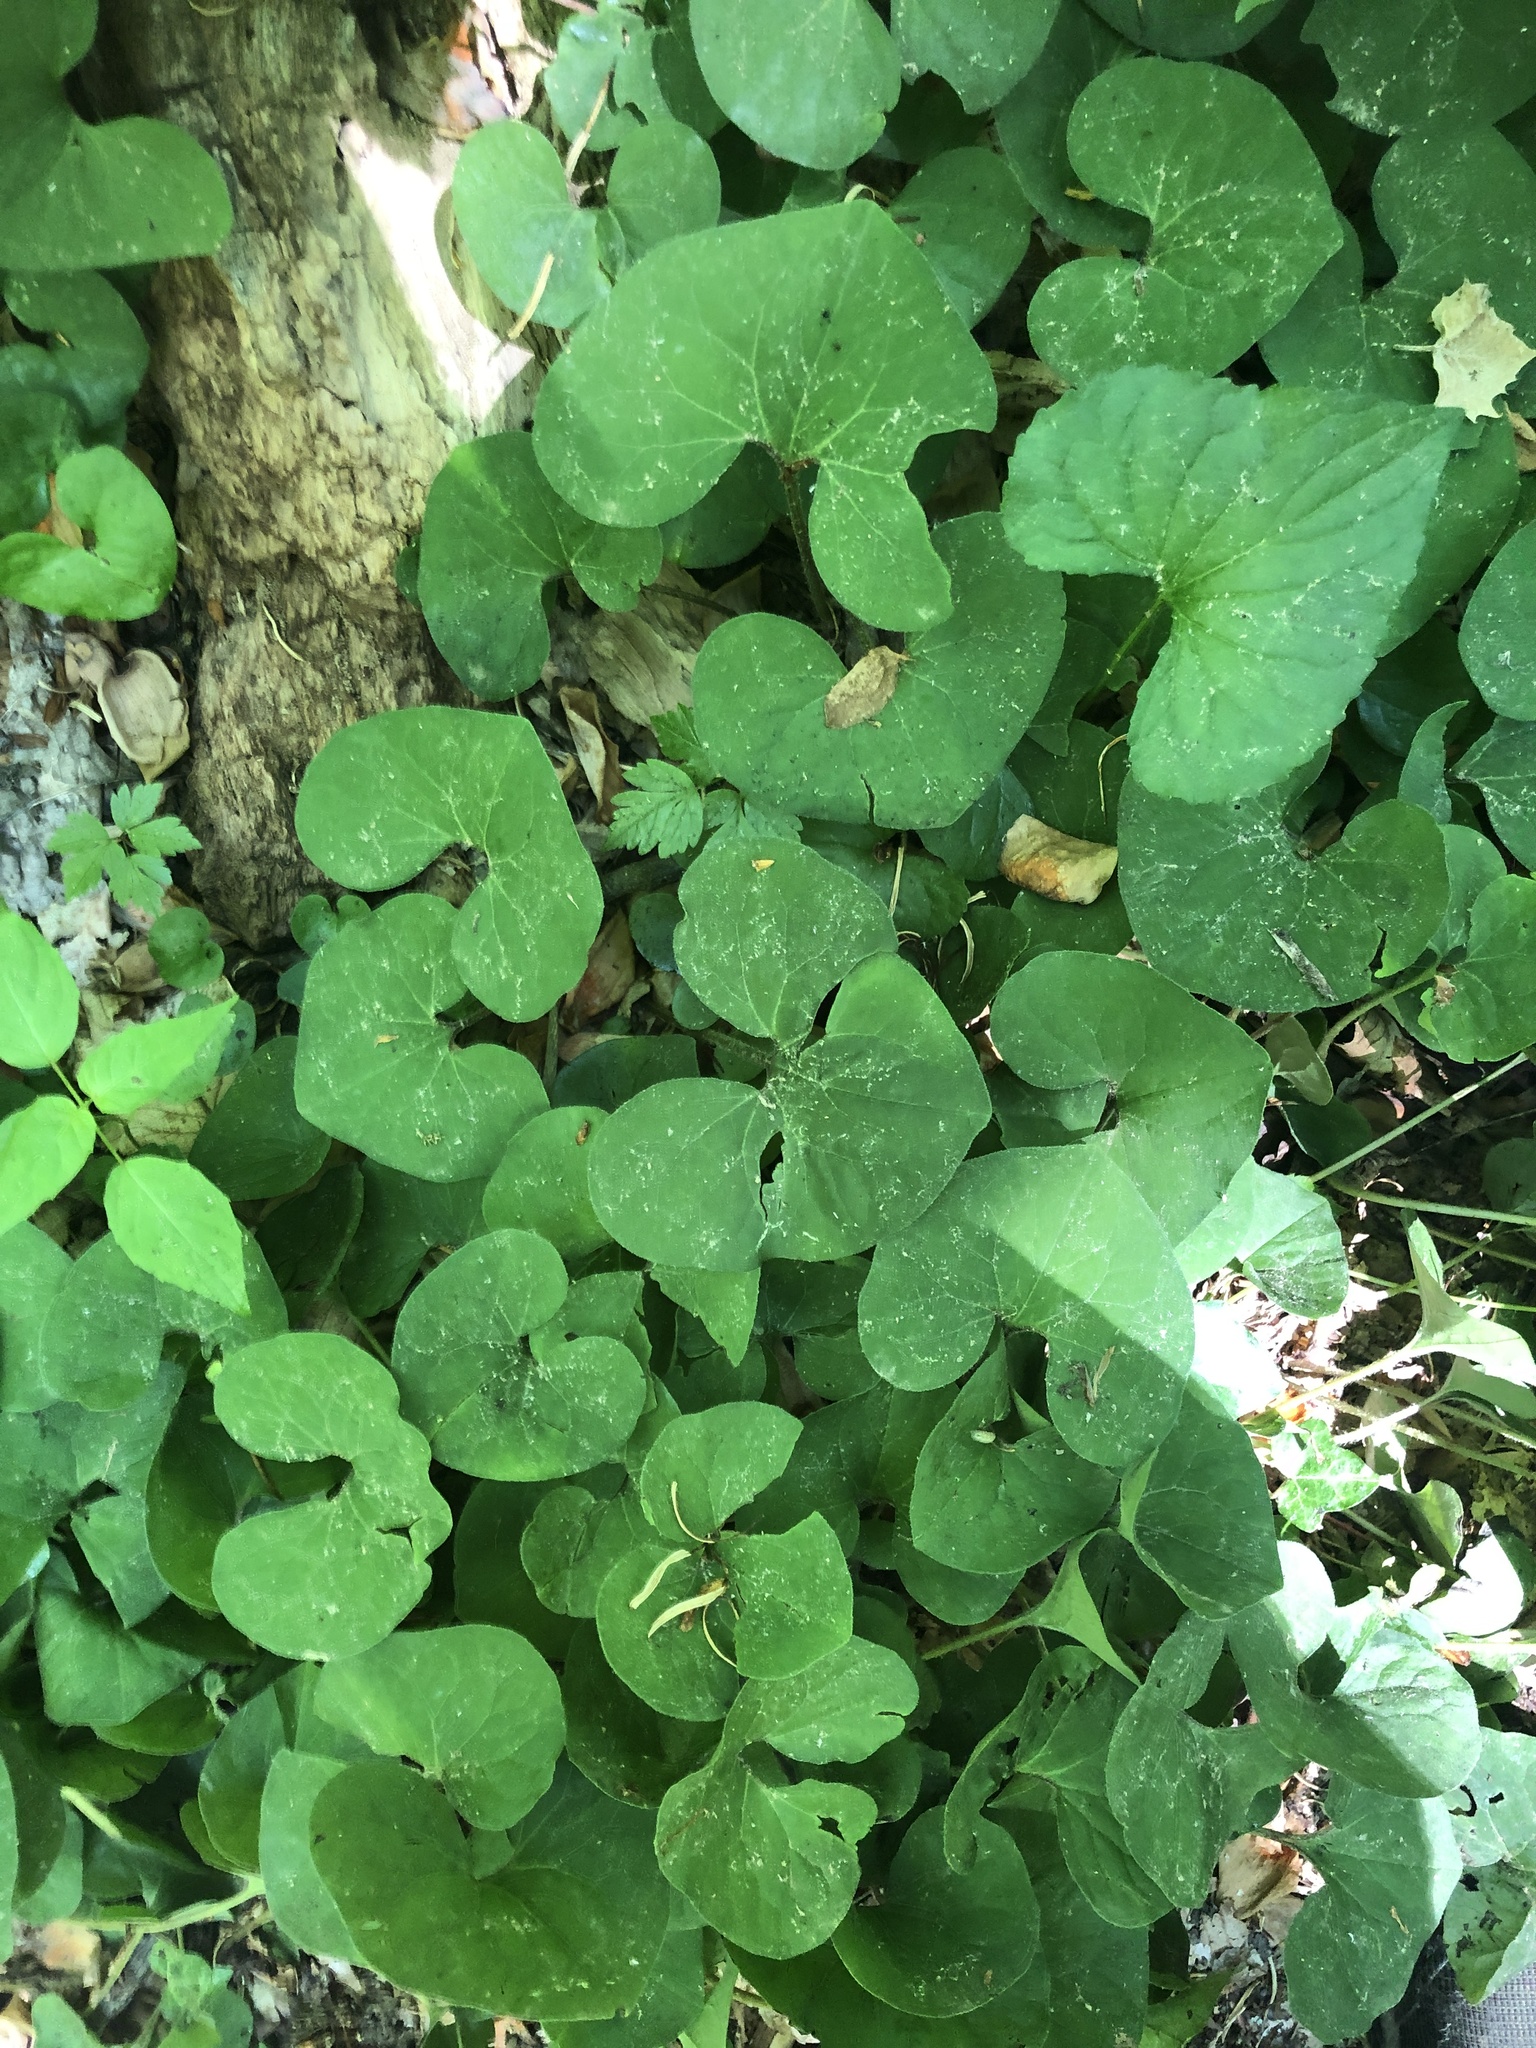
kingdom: Plantae
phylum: Tracheophyta
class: Magnoliopsida
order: Piperales
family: Aristolochiaceae
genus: Asarum
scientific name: Asarum canadense
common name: Wild ginger
